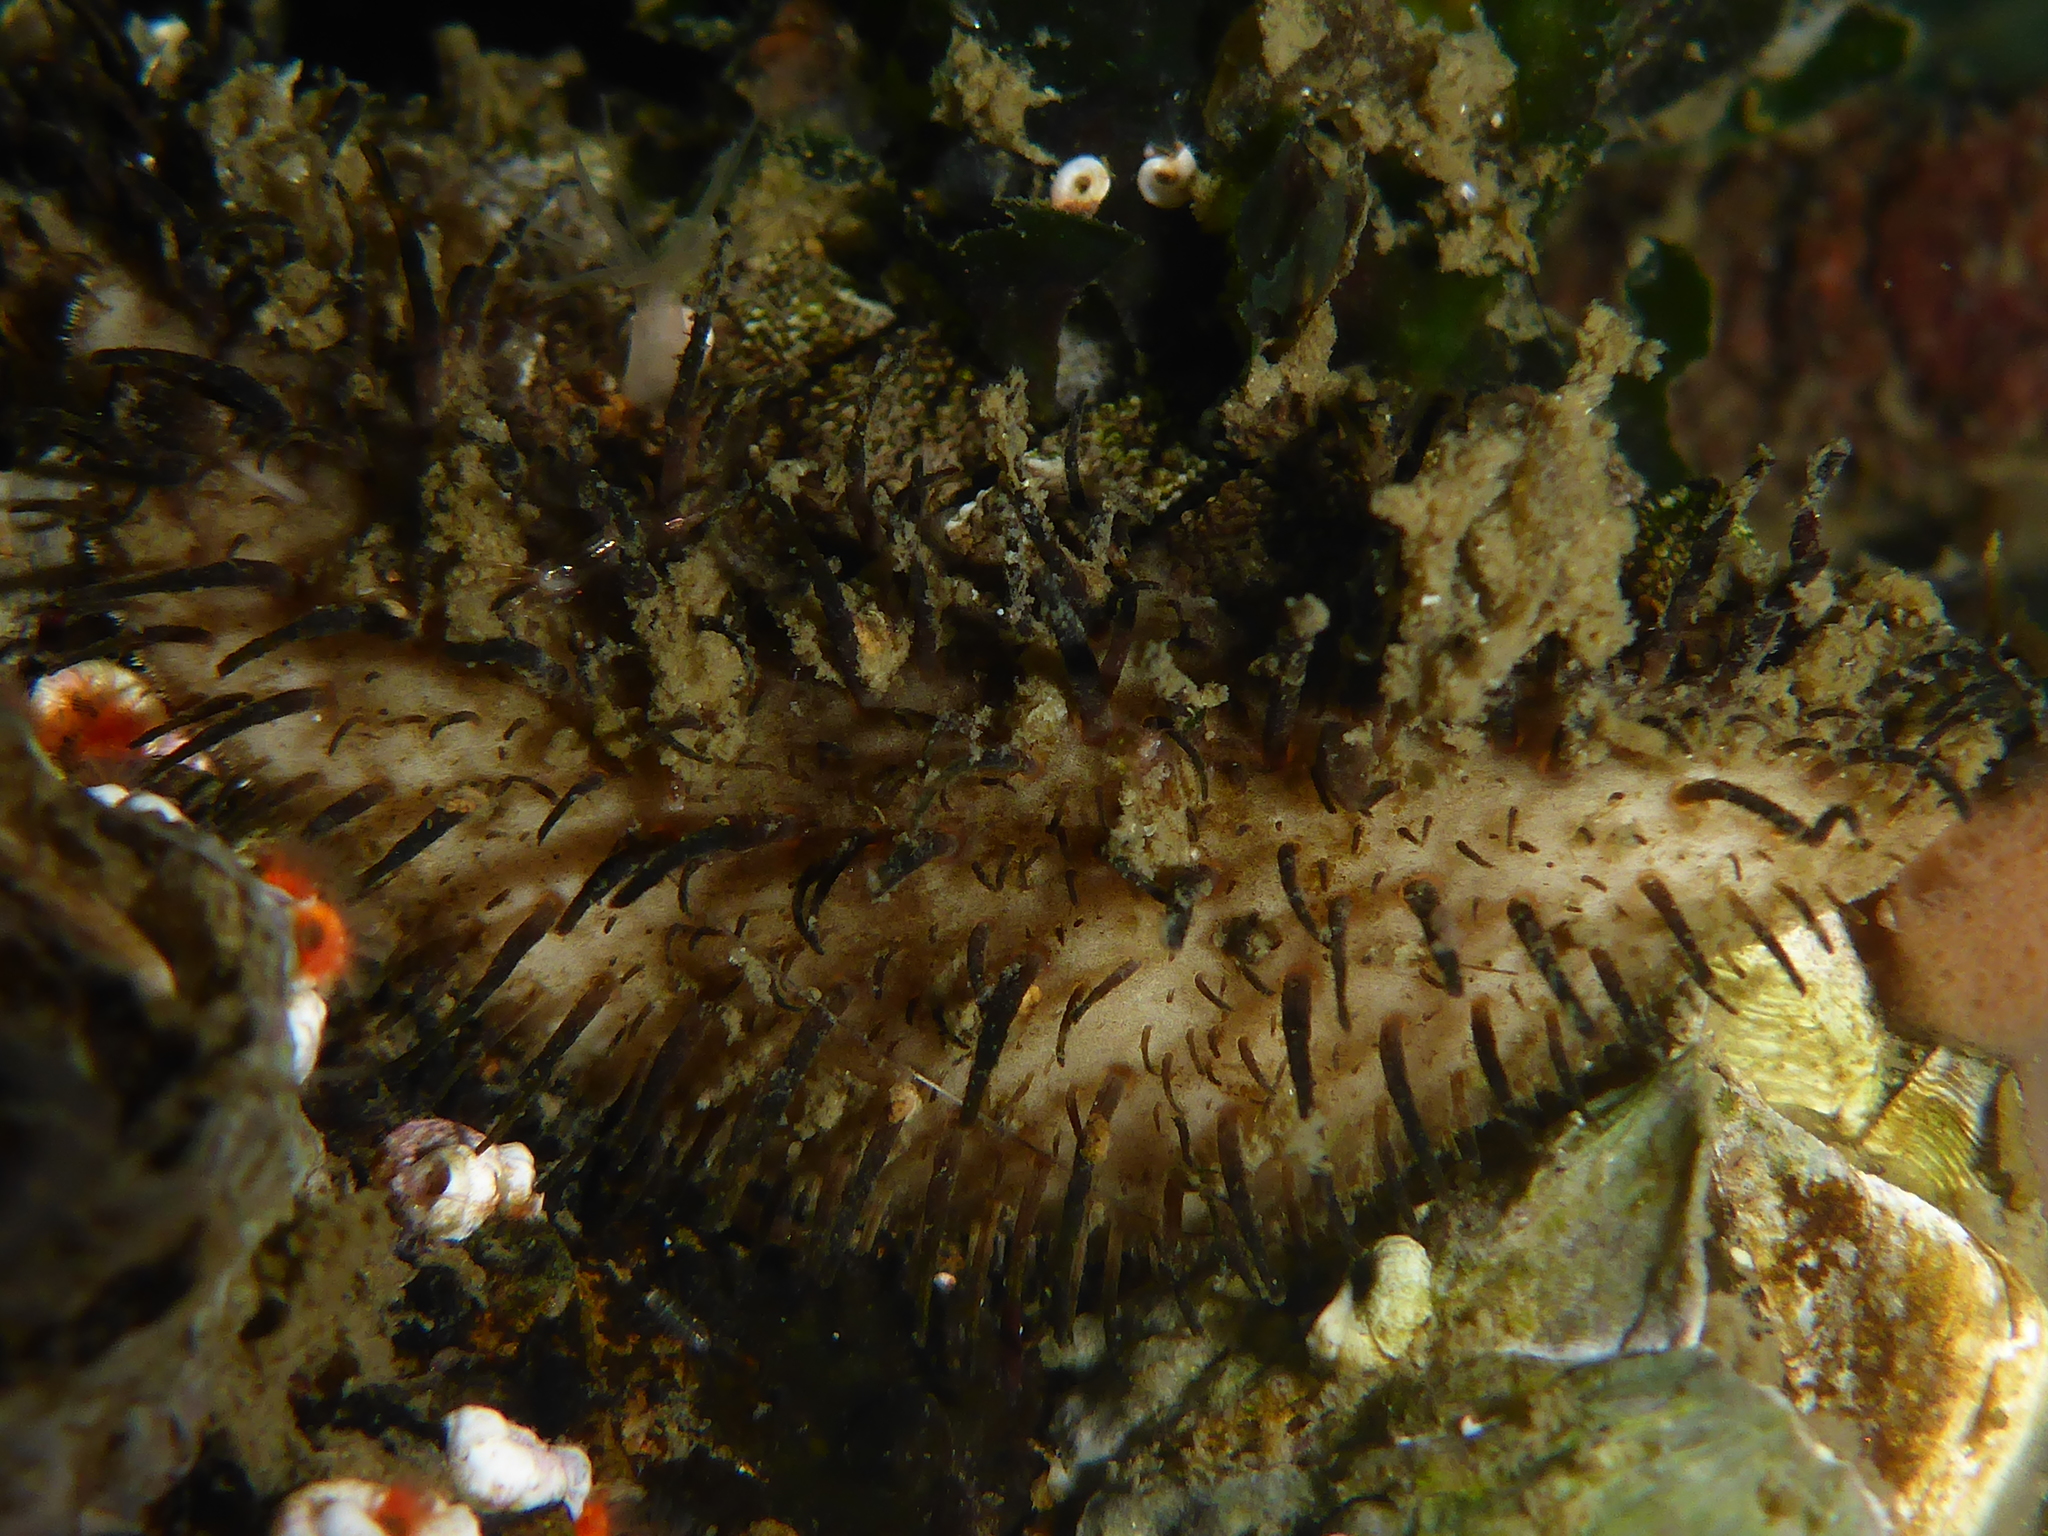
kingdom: Animalia
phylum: Mollusca
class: Polyplacophora
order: Chitonida
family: Mopaliidae
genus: Mopalia
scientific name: Mopalia muscosa
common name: Mossy chiton
